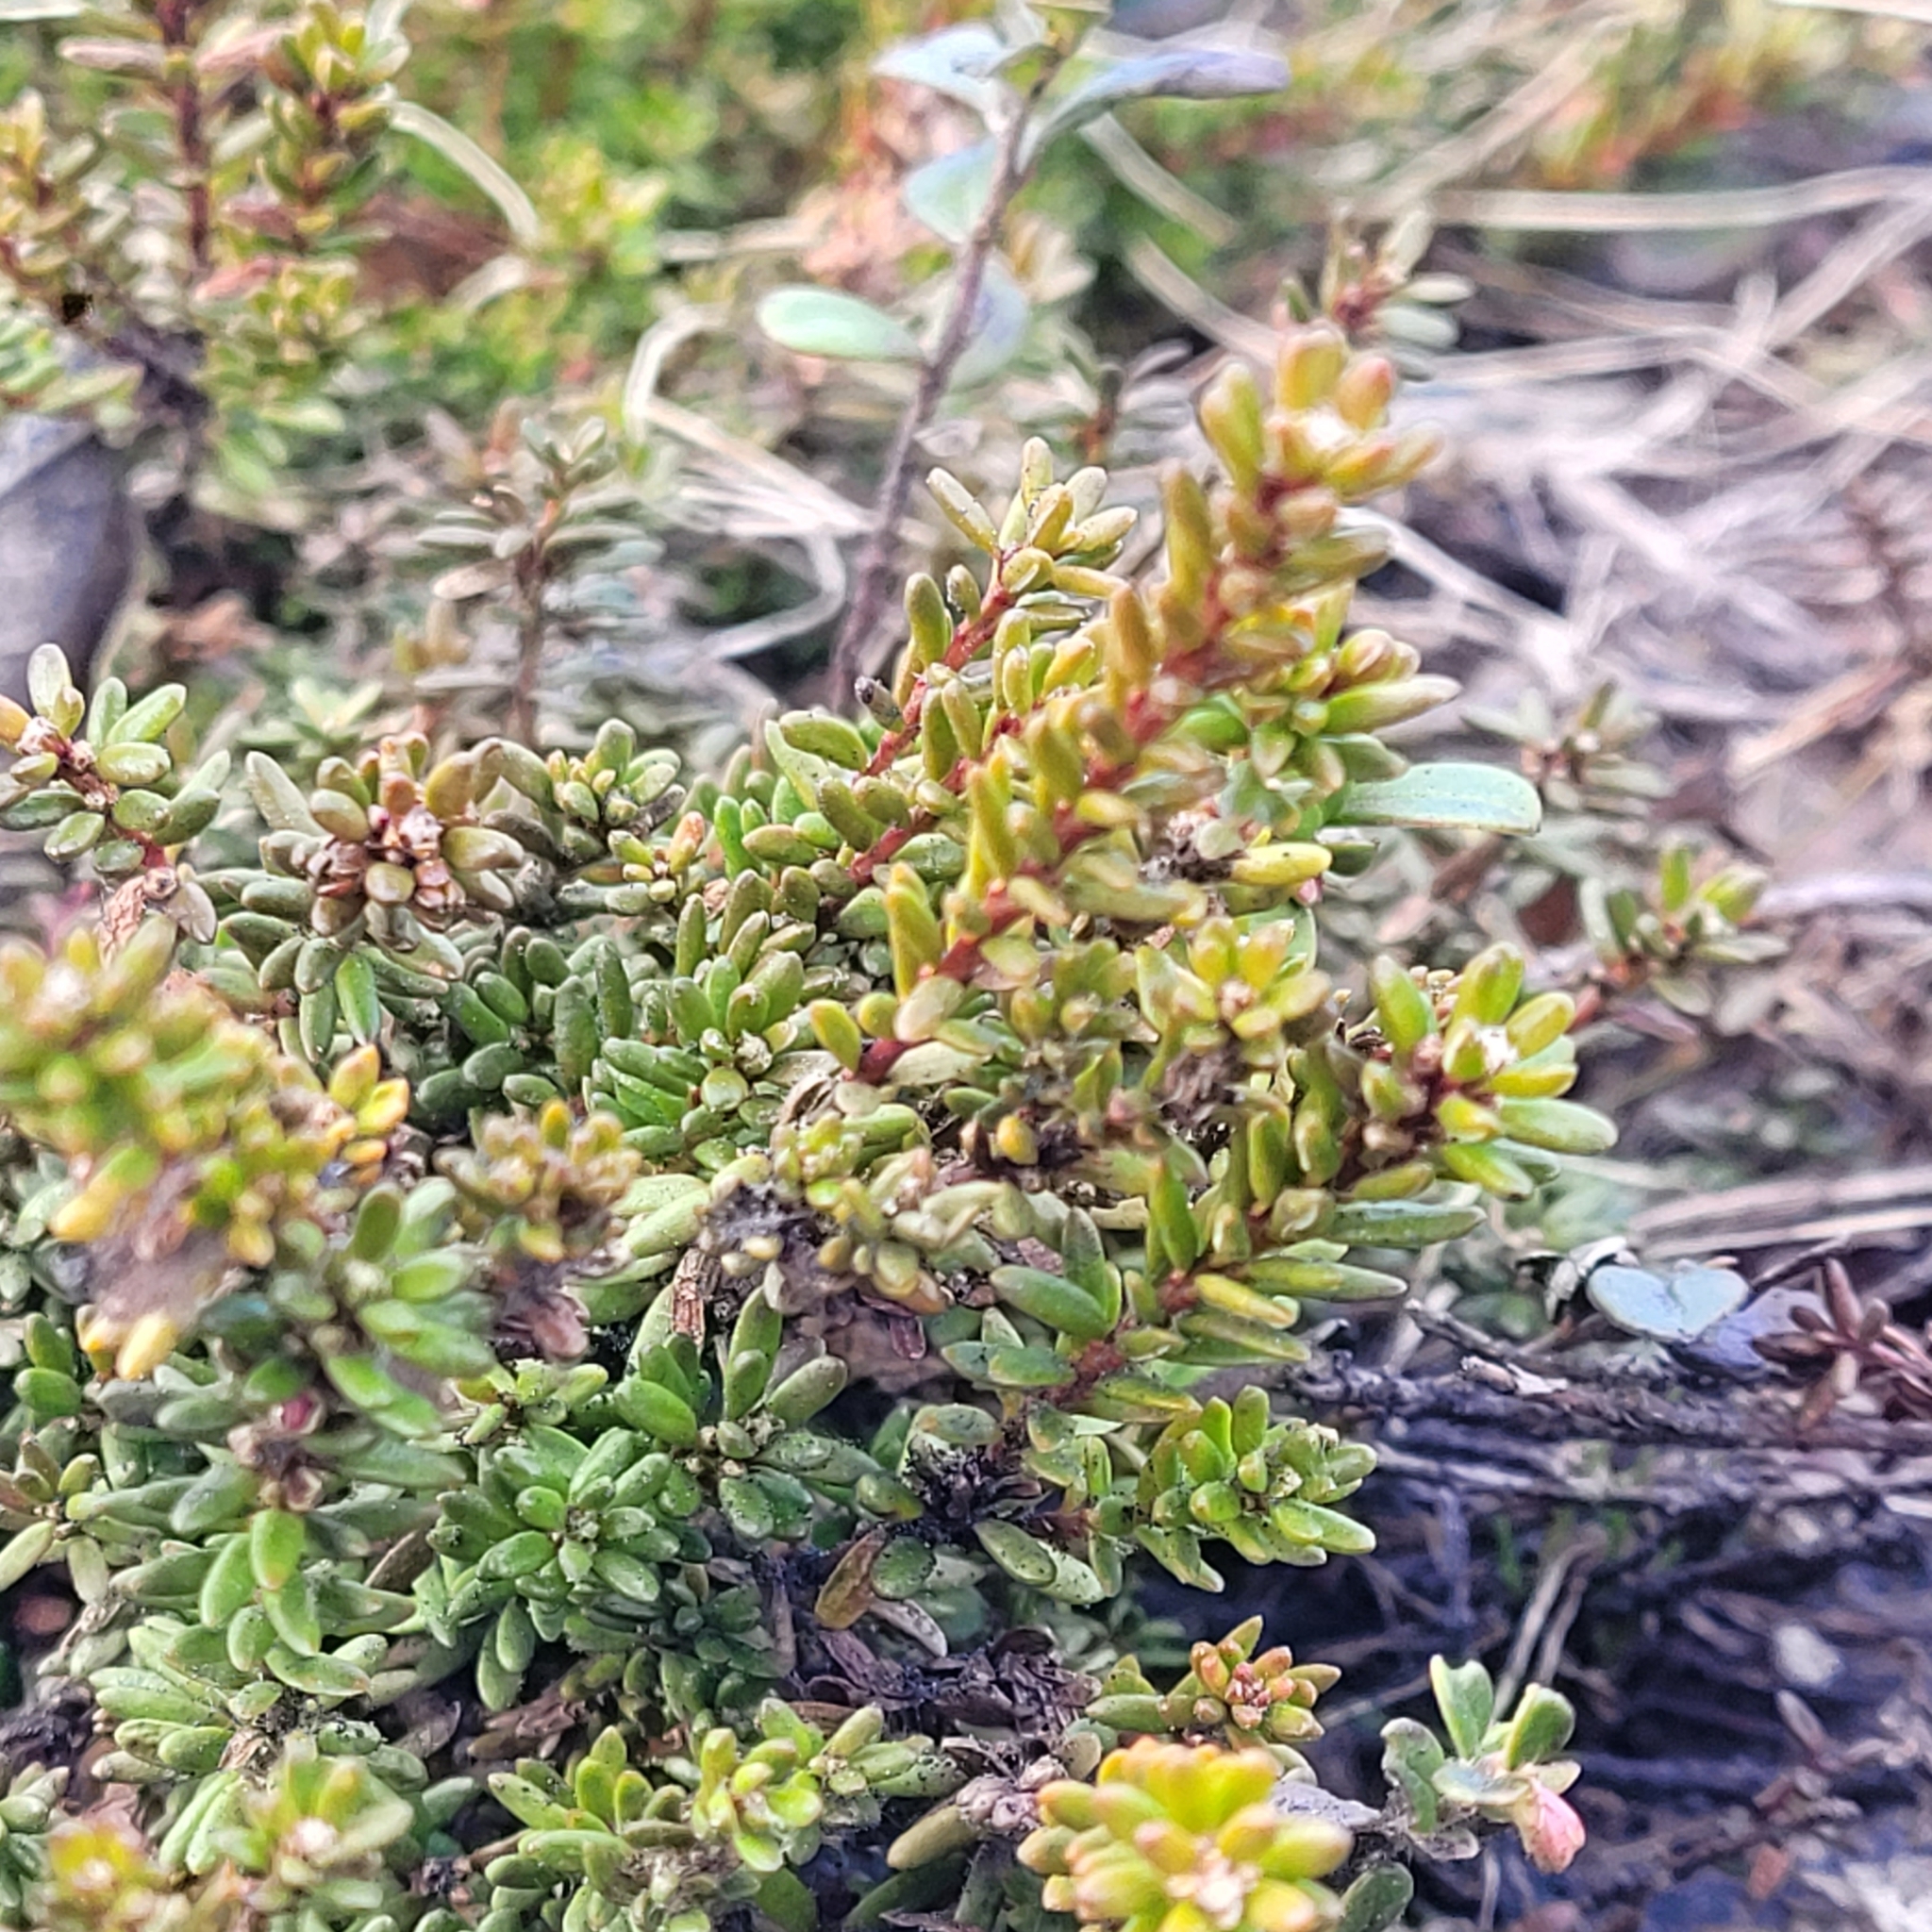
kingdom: Plantae
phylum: Tracheophyta
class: Magnoliopsida
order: Ericales
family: Ericaceae
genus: Empetrum
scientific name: Empetrum nigrum
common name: Black crowberry
